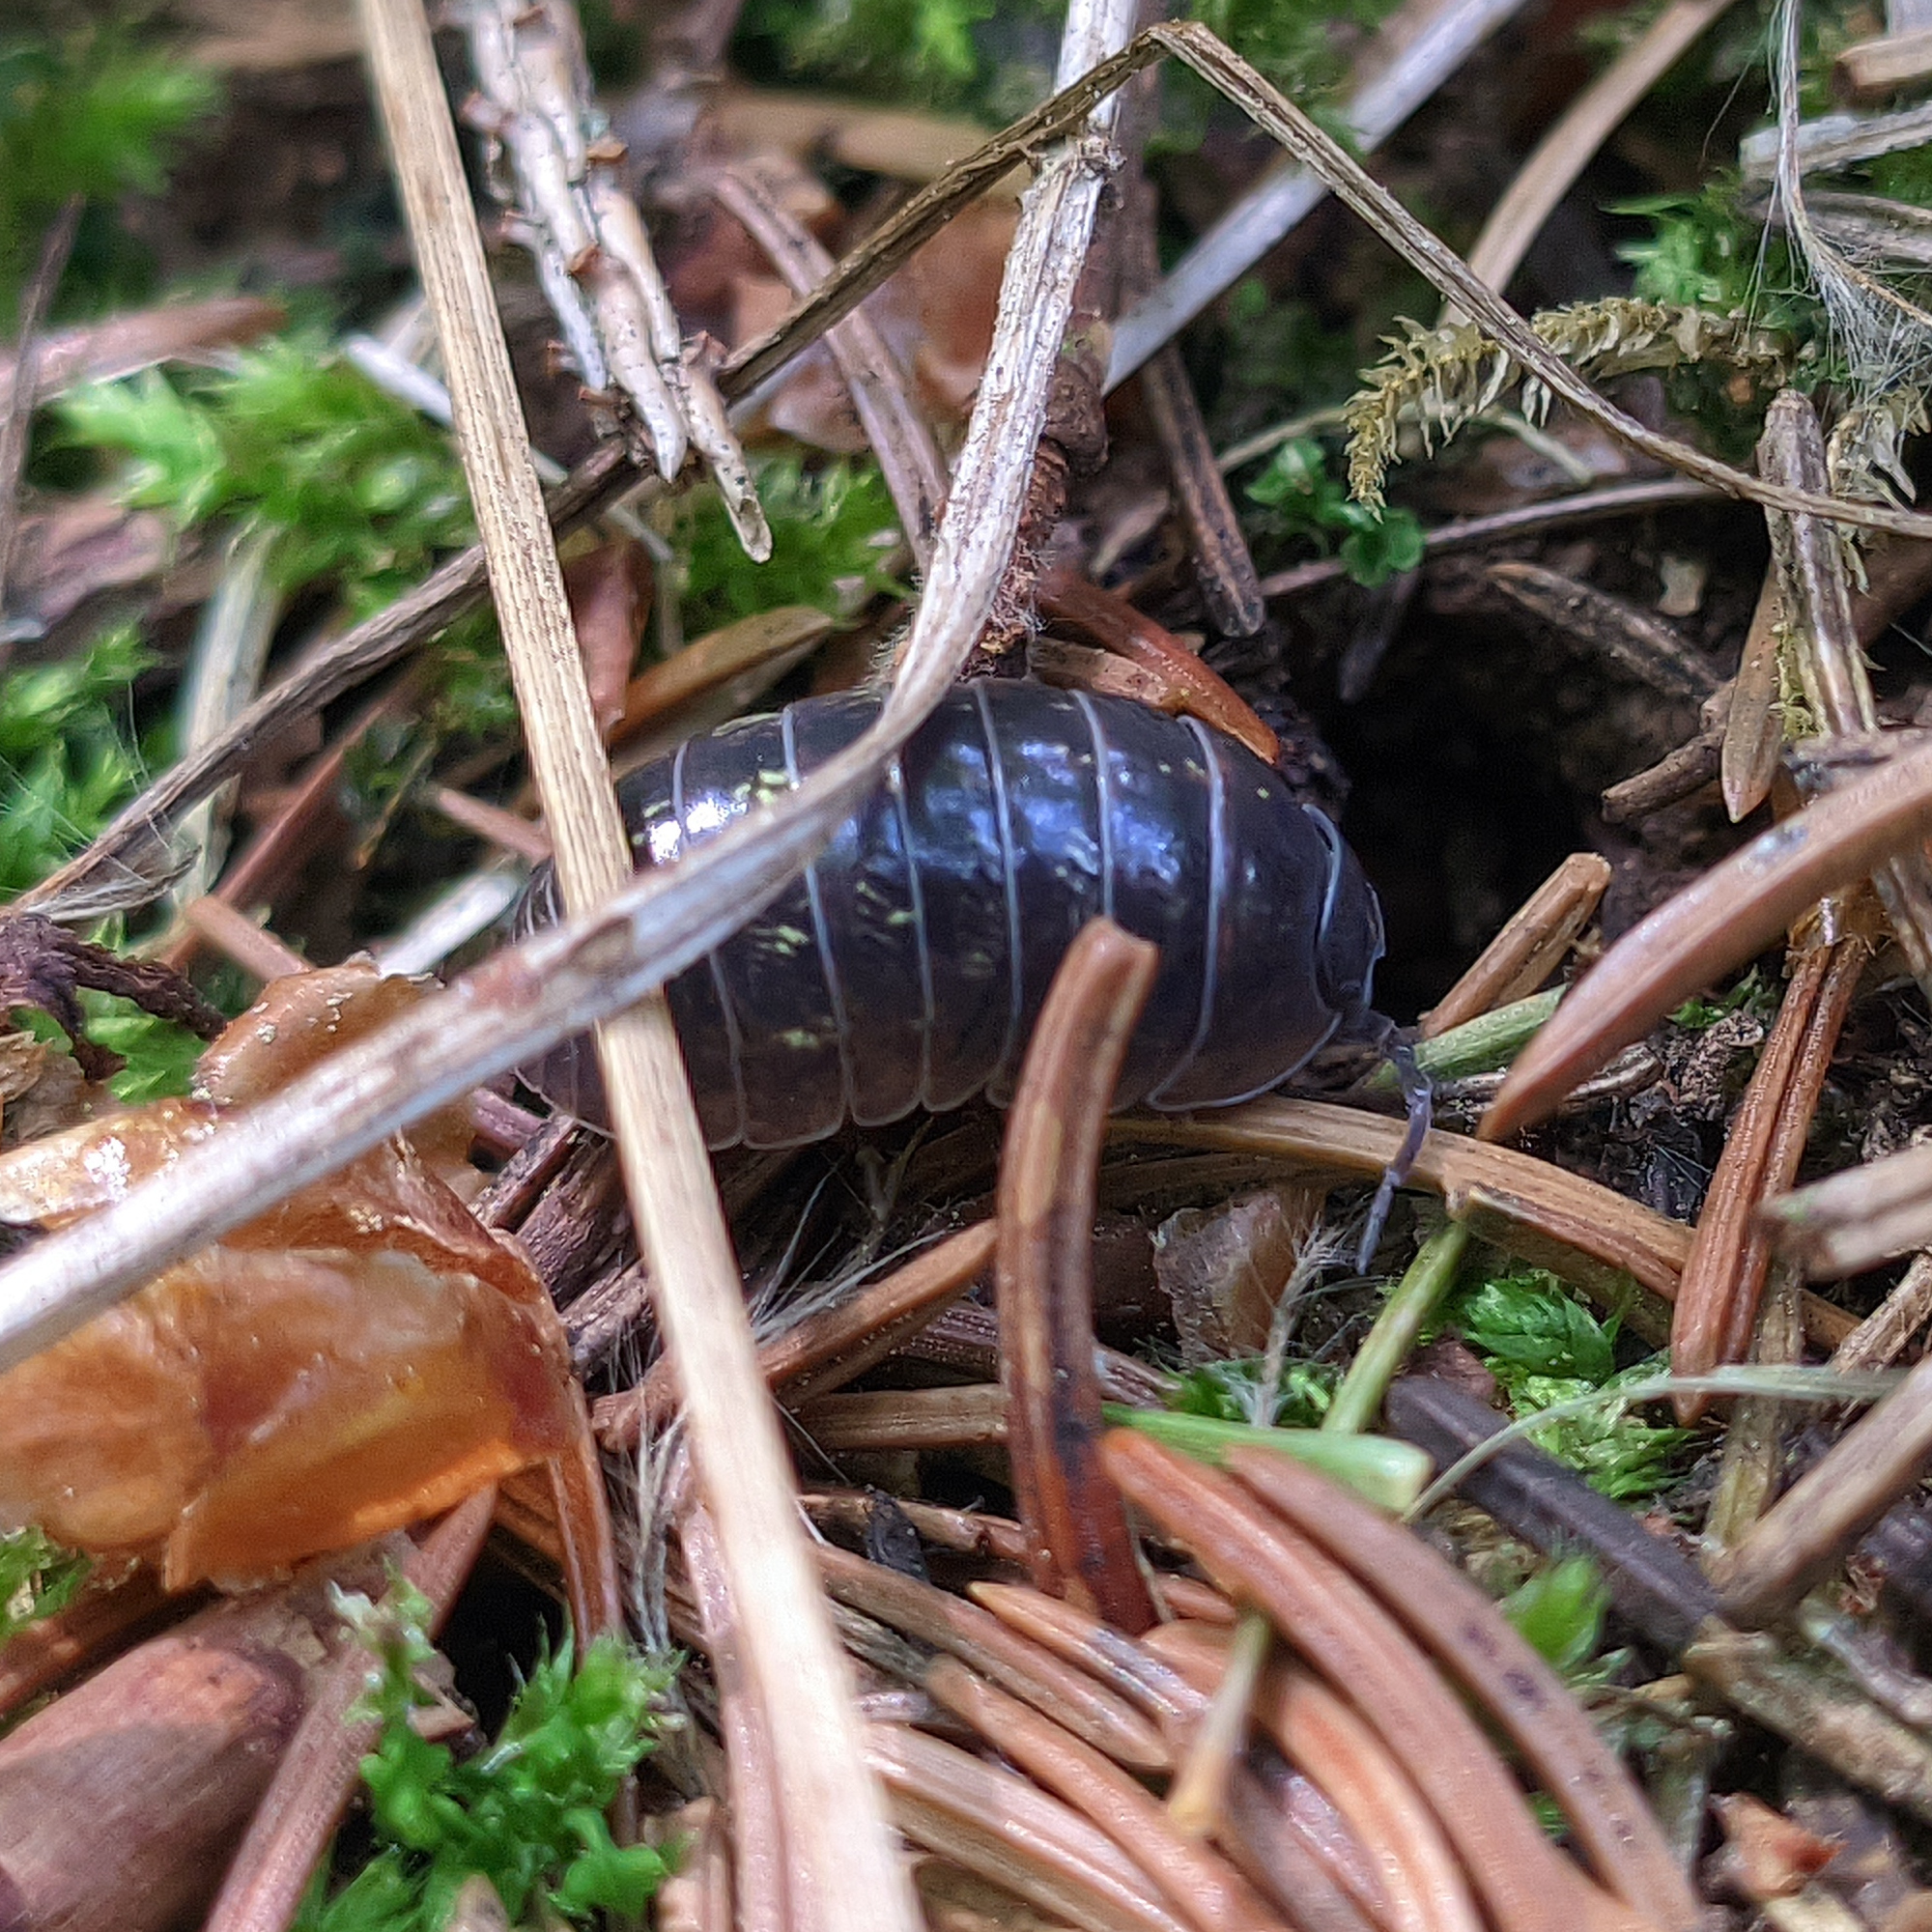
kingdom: Animalia
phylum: Arthropoda
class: Malacostraca
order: Isopoda
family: Armadillidiidae
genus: Armadillidium
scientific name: Armadillidium vulgare
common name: Common pill woodlouse
